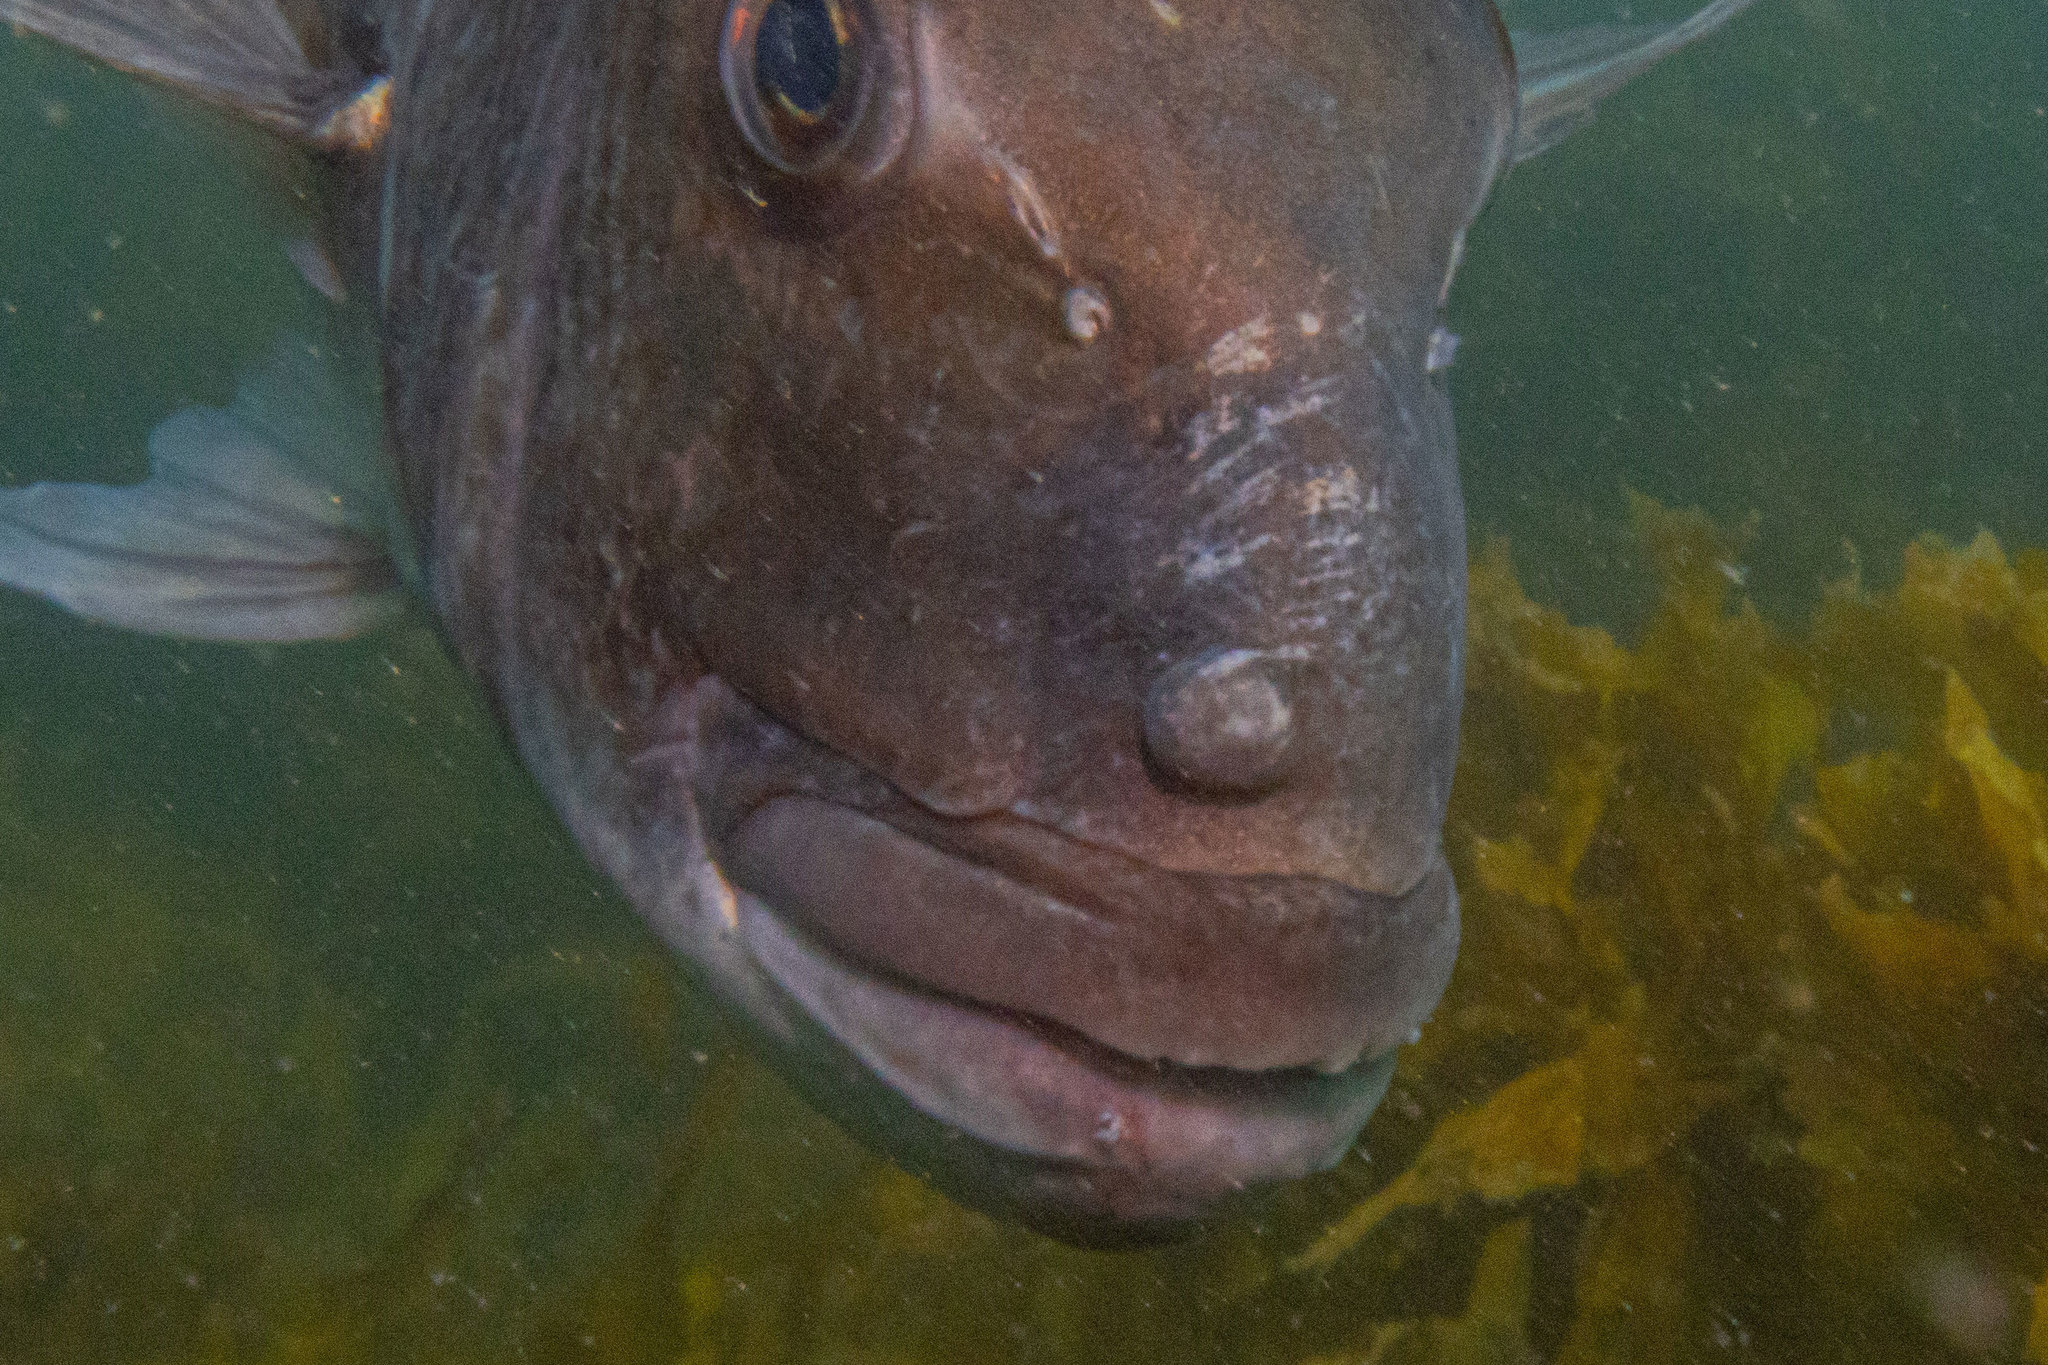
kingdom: Animalia
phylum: Chordata
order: Perciformes
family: Sparidae
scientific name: Sparidae
